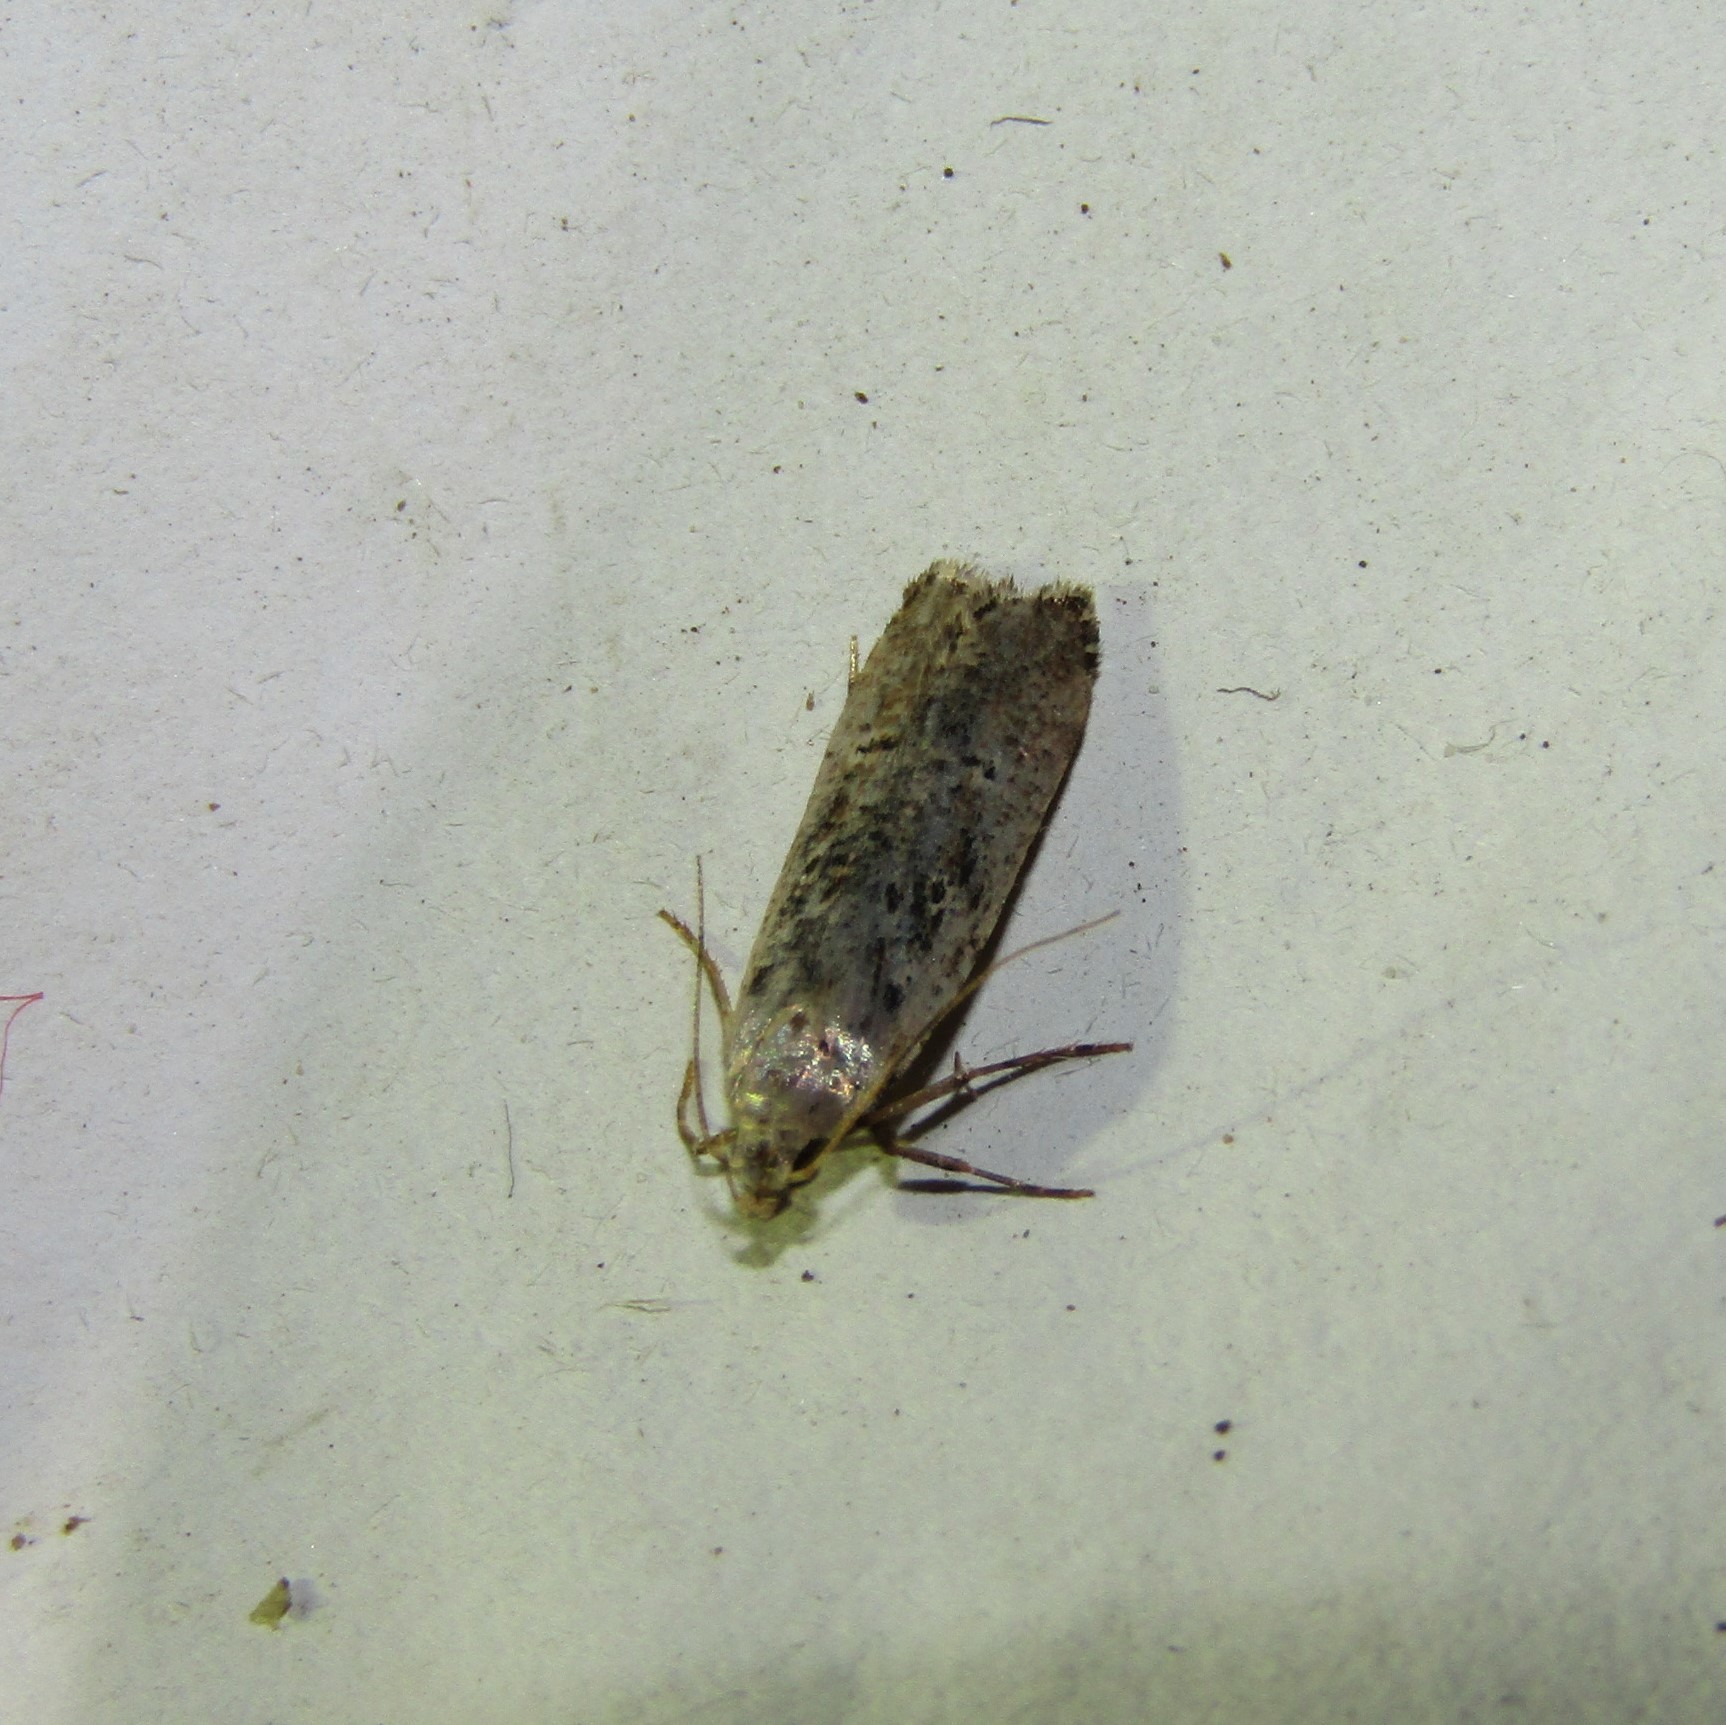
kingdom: Animalia
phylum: Arthropoda
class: Insecta
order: Lepidoptera
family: Gelechiidae
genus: Anisoplaca
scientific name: Anisoplaca achyrota
